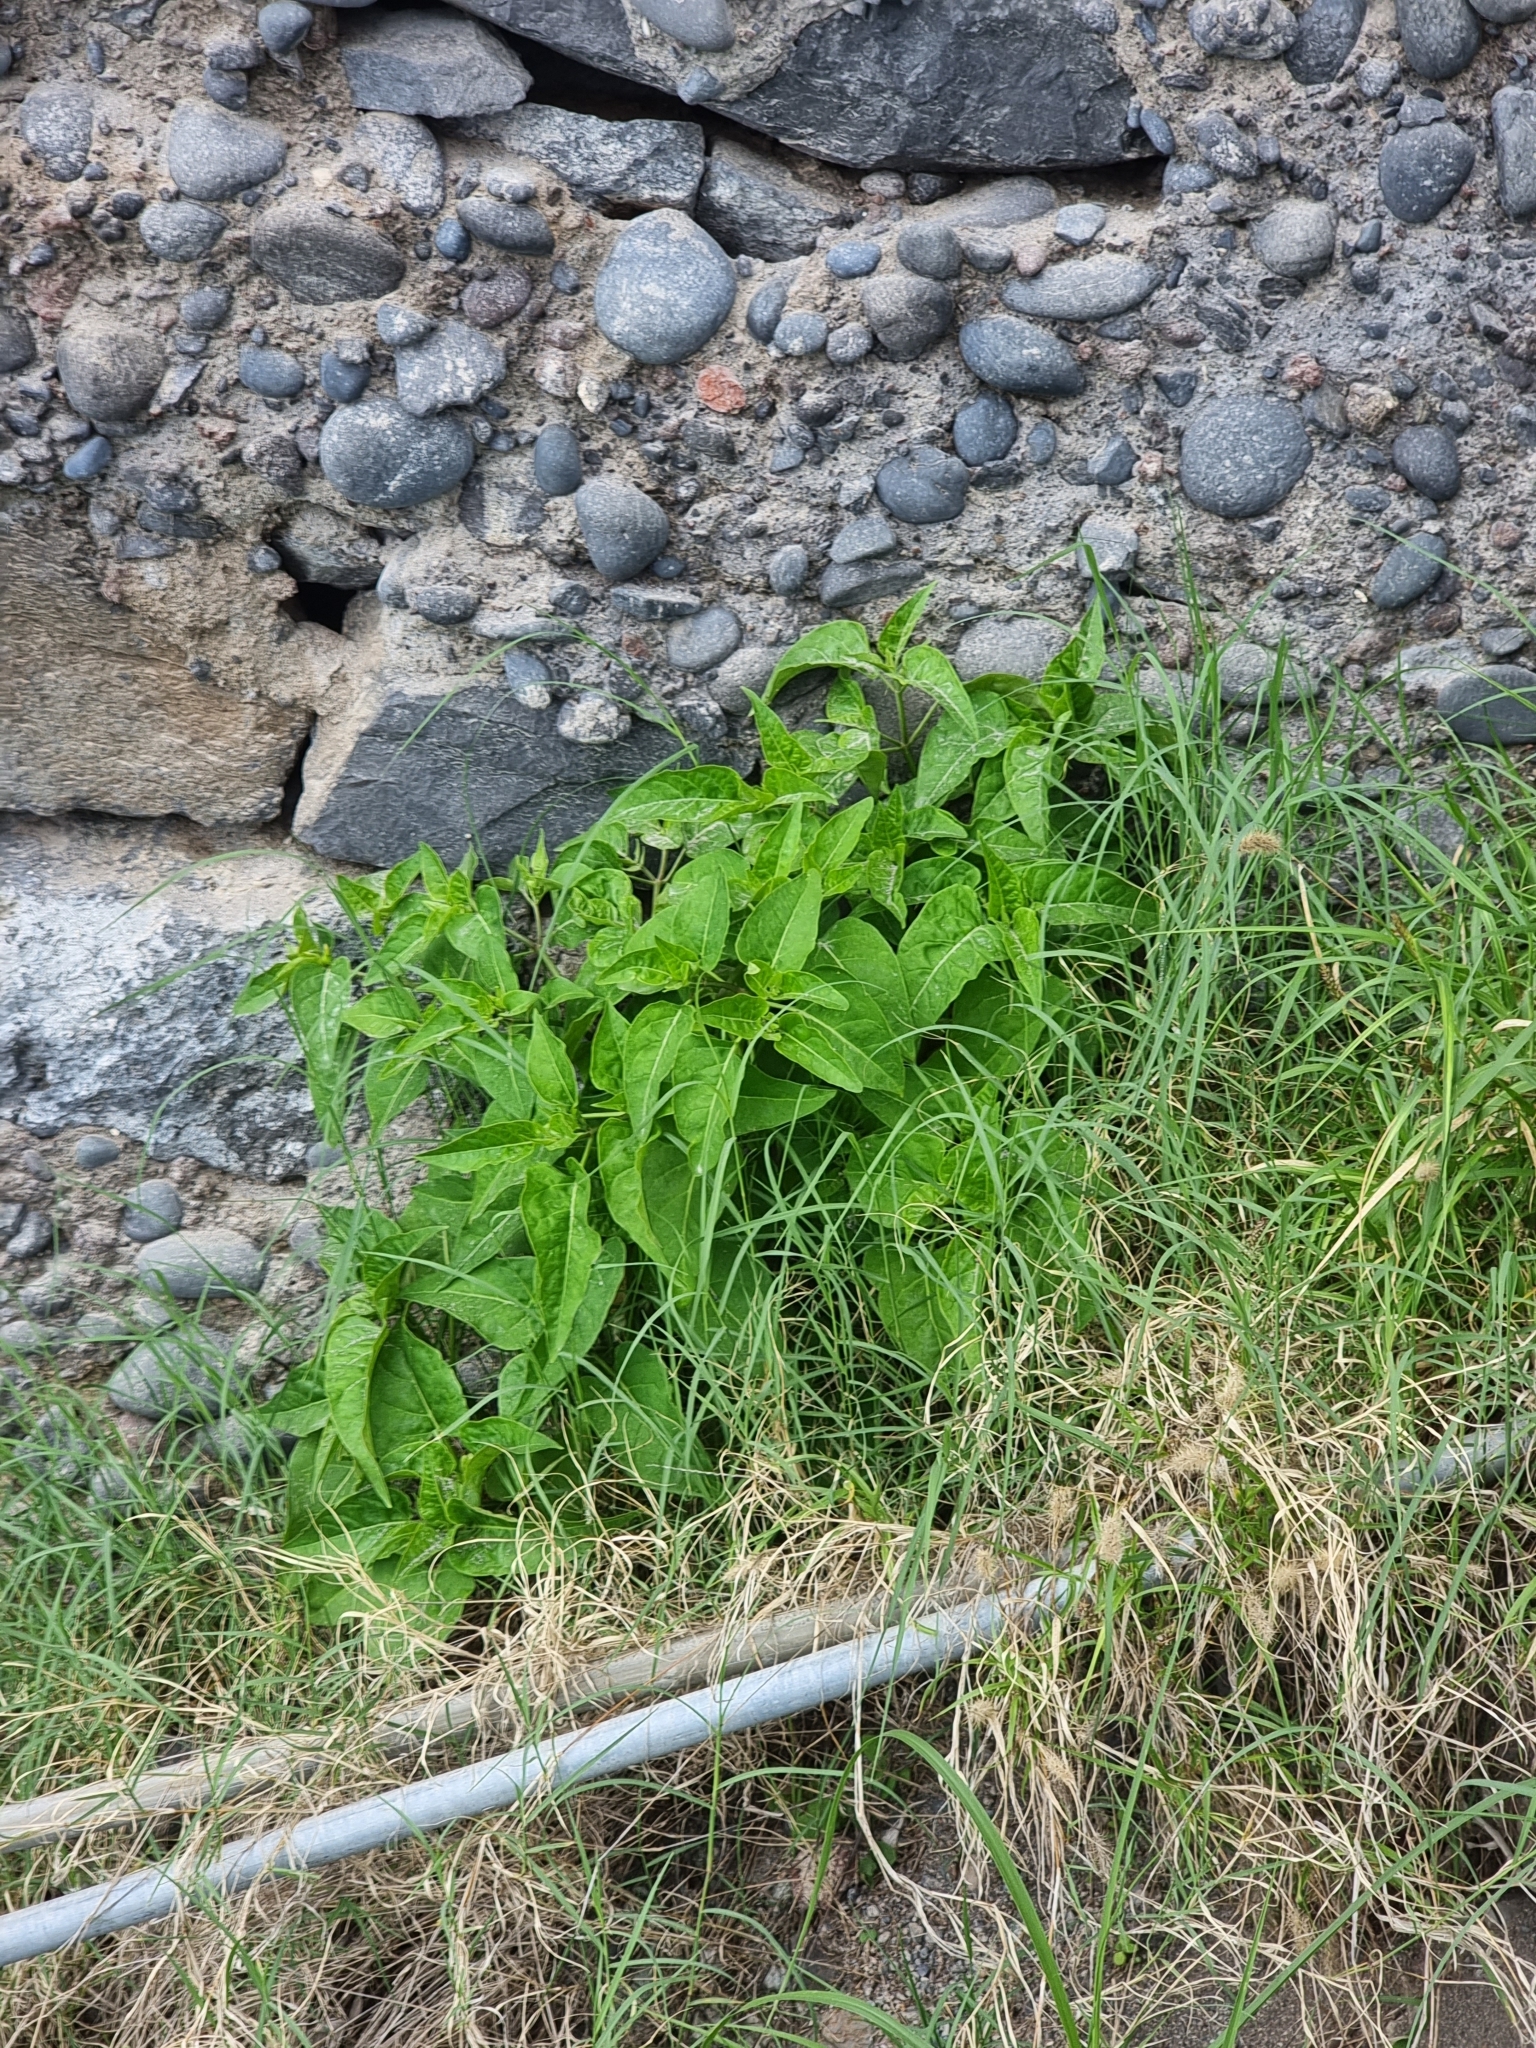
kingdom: Plantae
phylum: Tracheophyta
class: Magnoliopsida
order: Caryophyllales
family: Nyctaginaceae
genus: Mirabilis
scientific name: Mirabilis jalapa
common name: Marvel-of-peru
